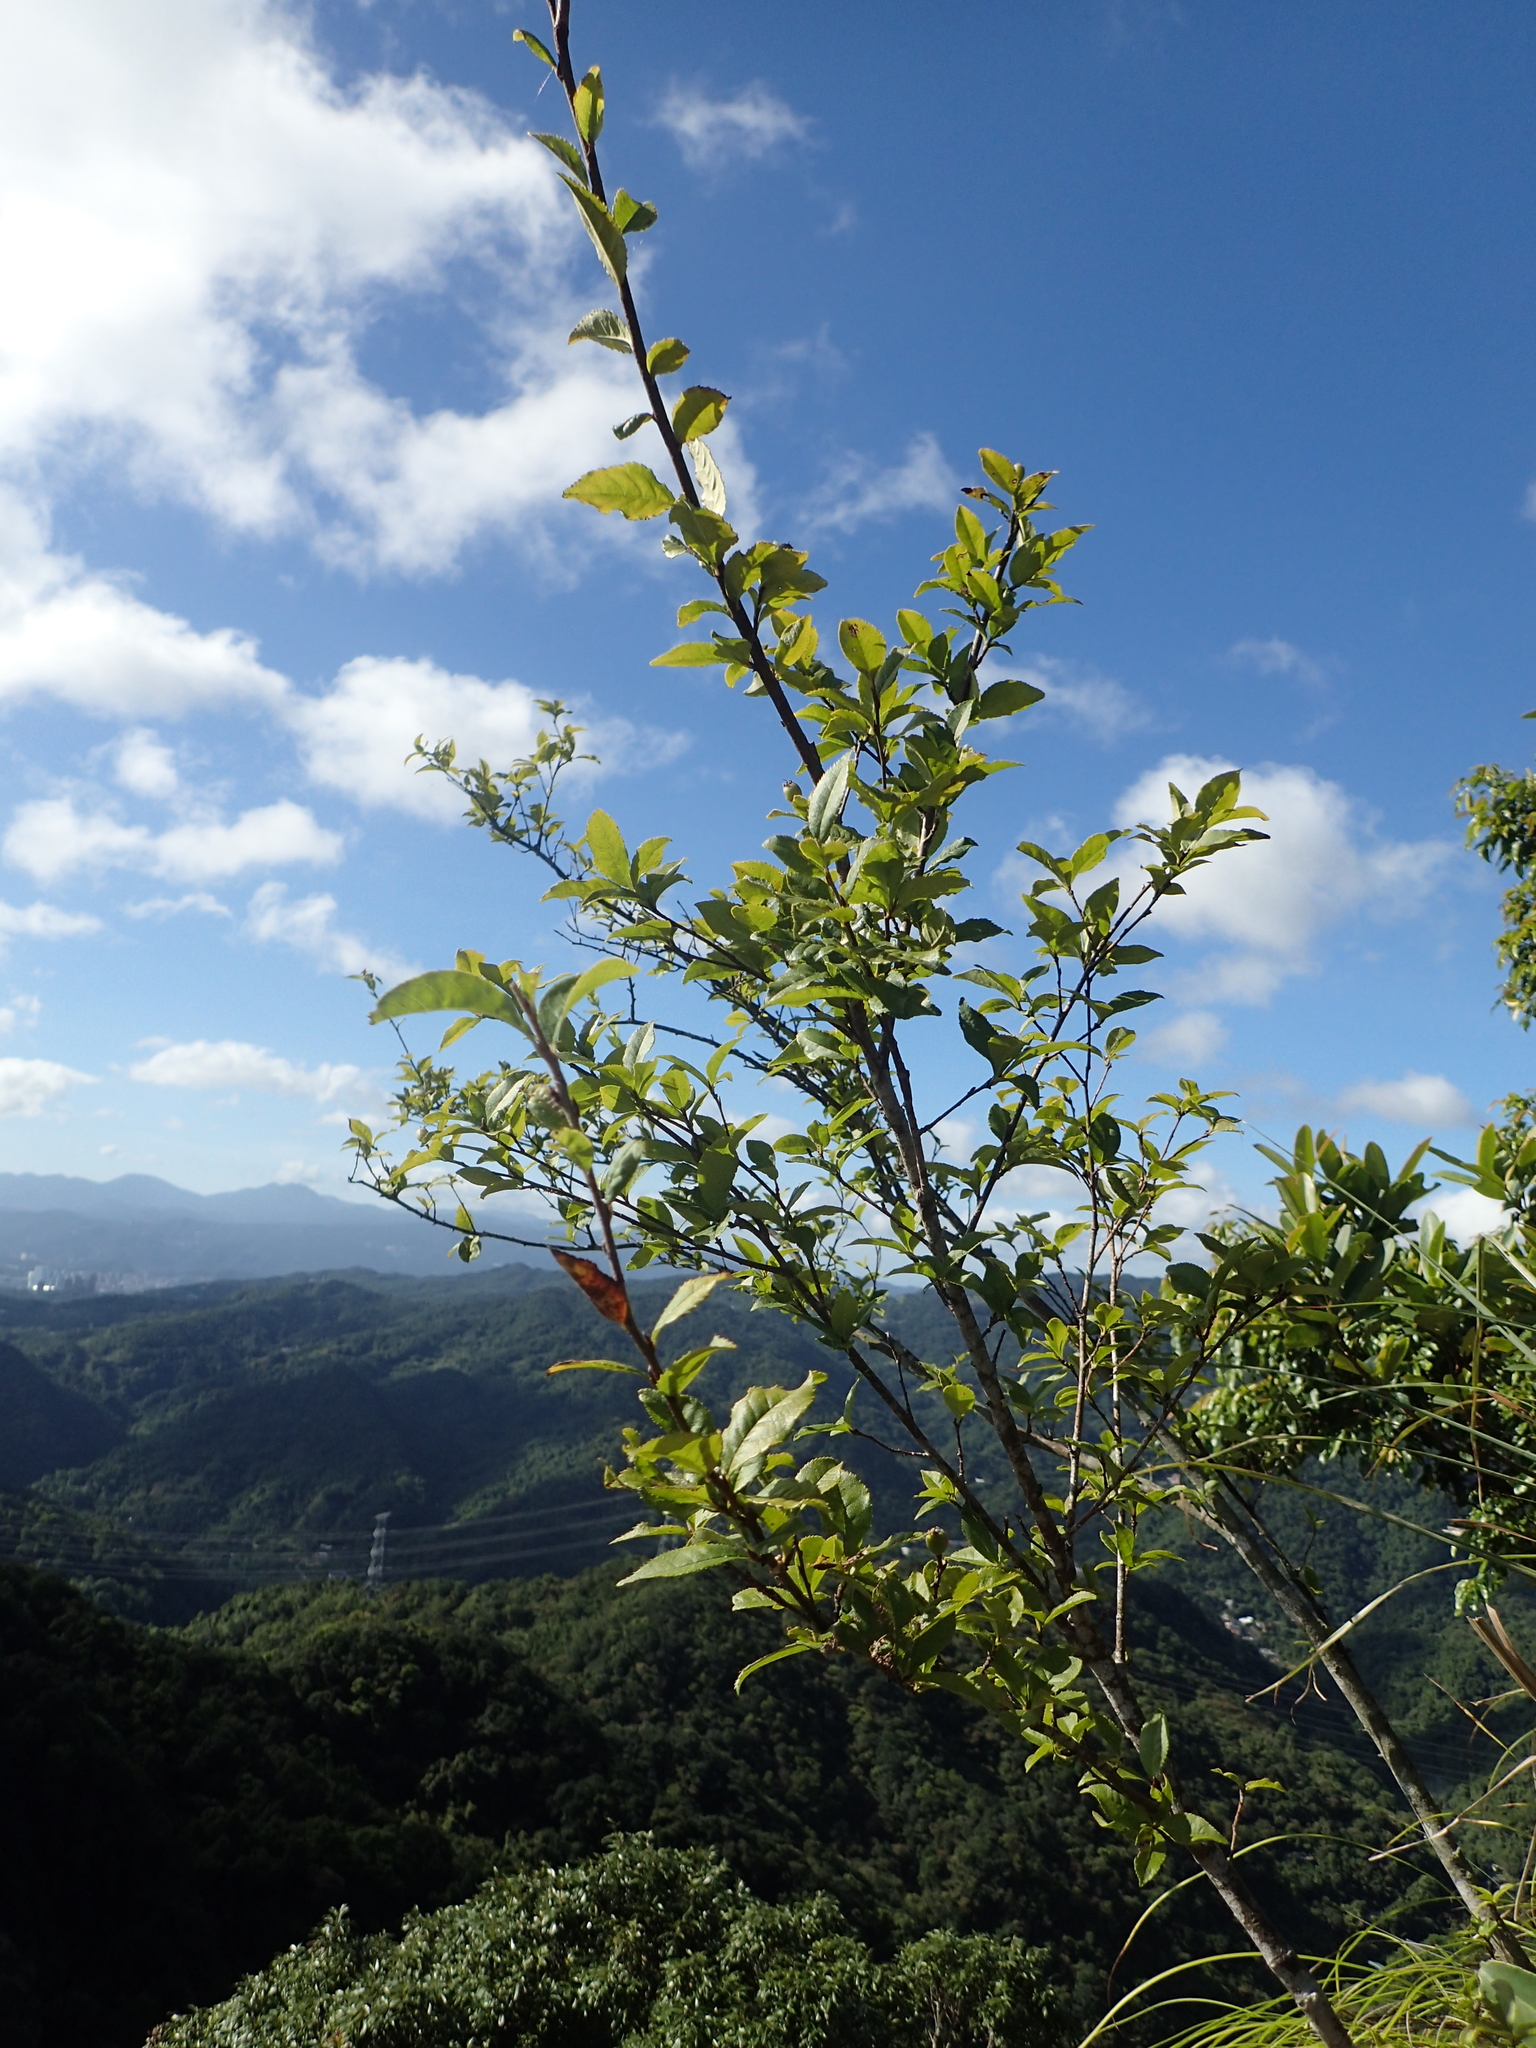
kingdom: Plantae
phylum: Tracheophyta
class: Magnoliopsida
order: Rosales
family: Rosaceae
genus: Pourthiaea
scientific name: Pourthiaea villosa
